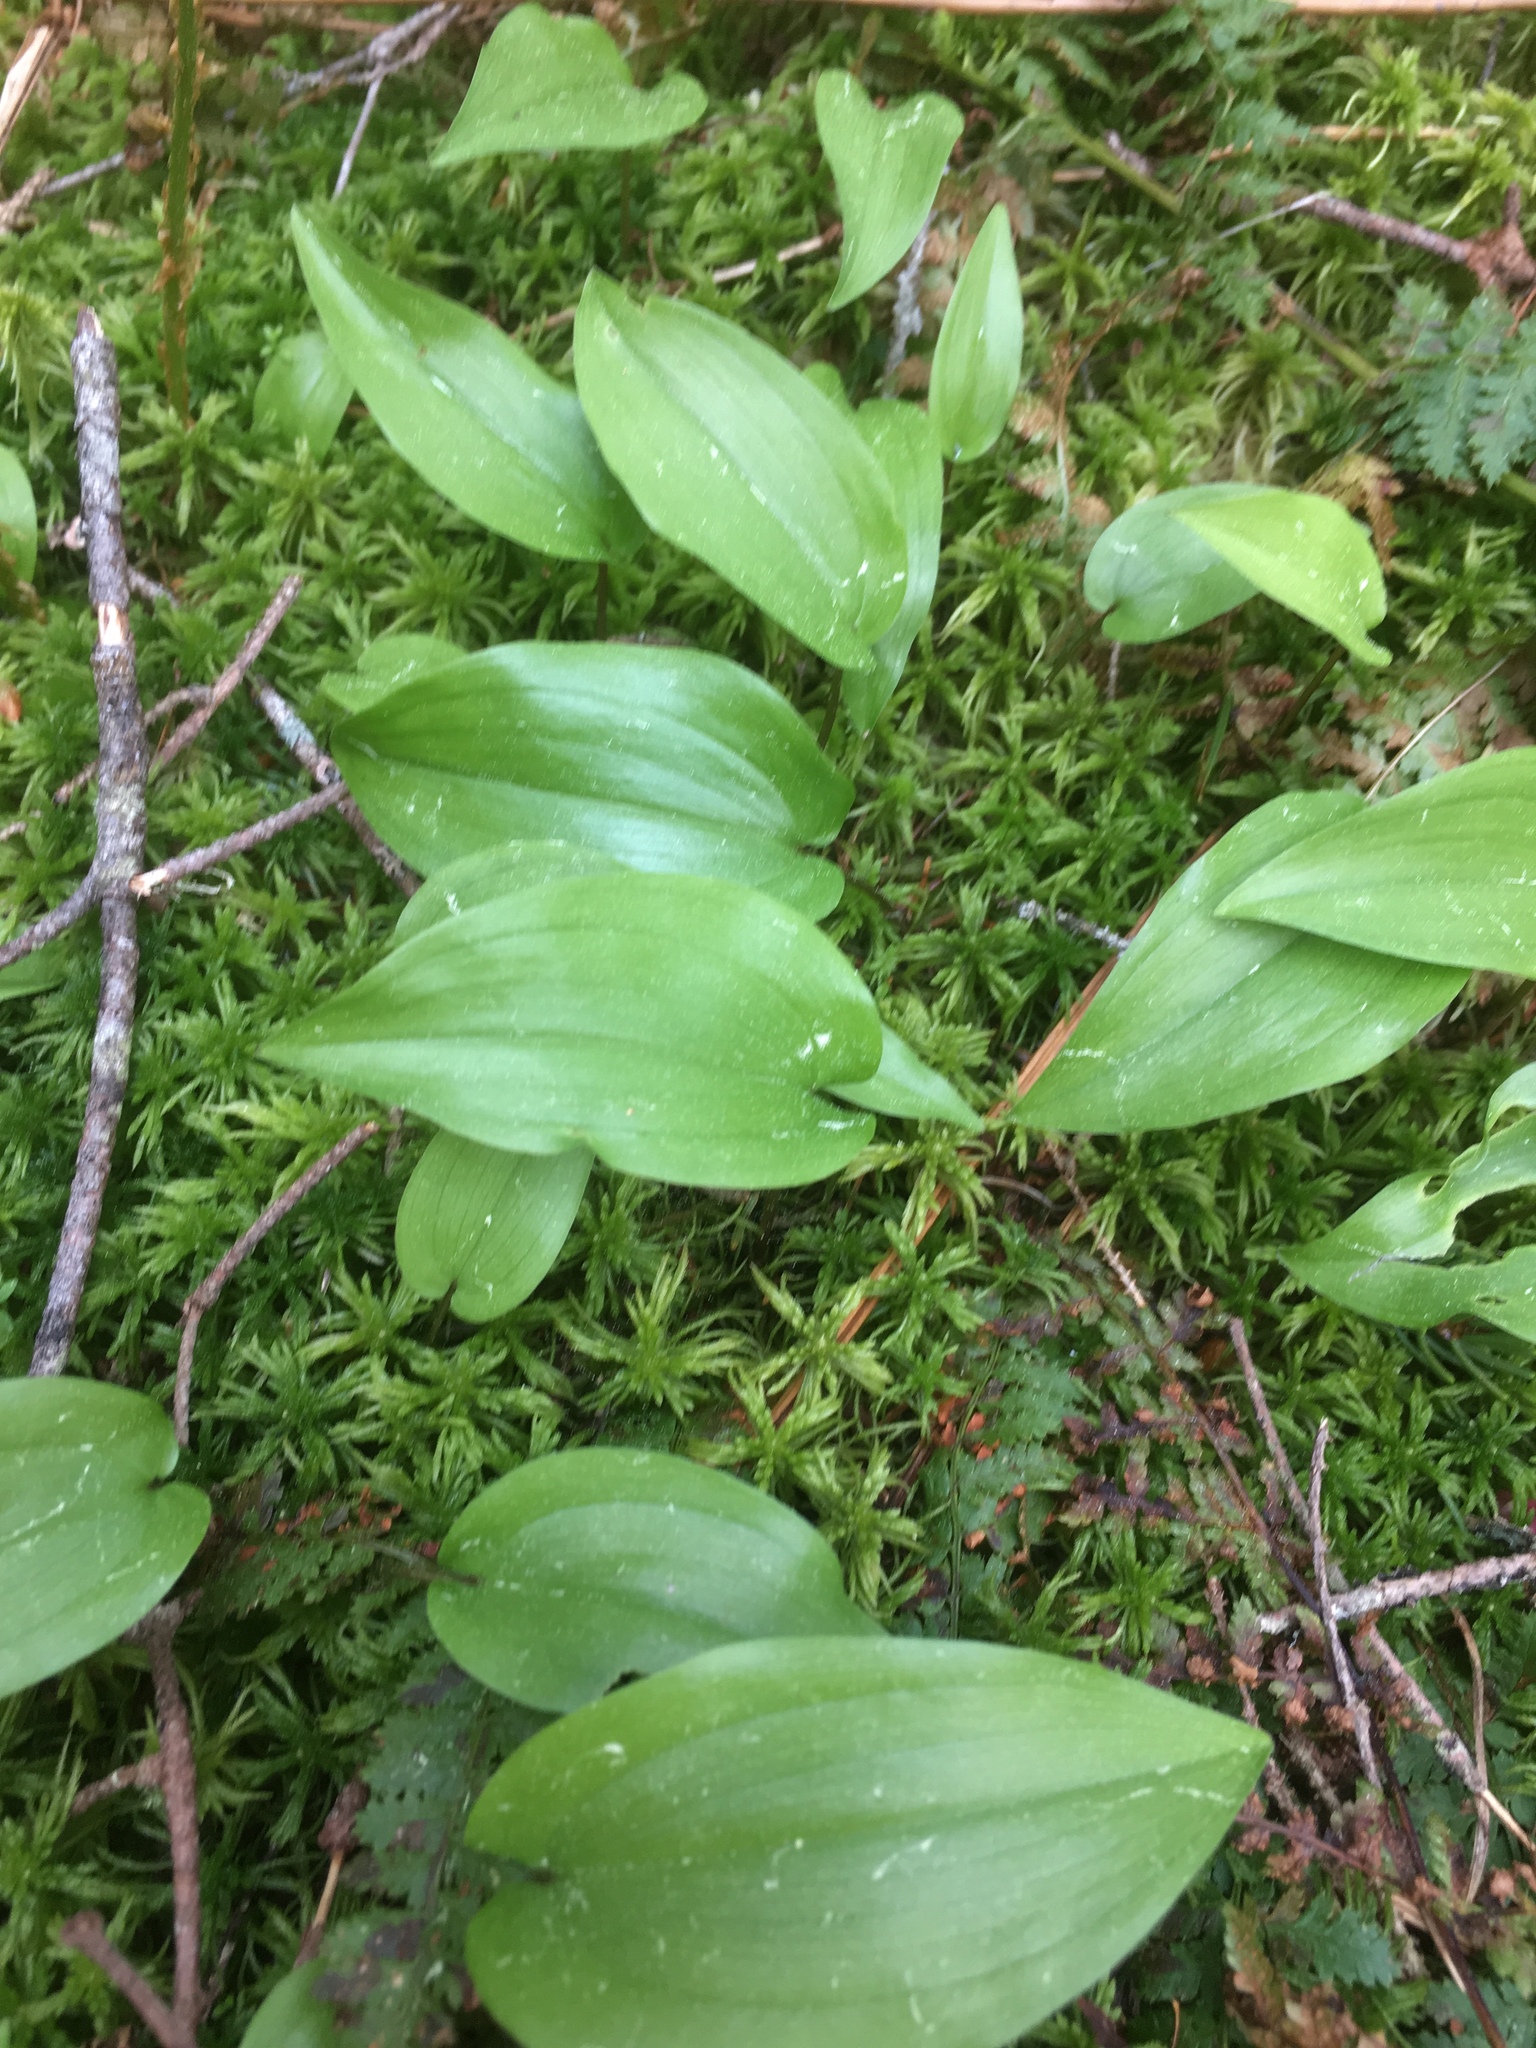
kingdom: Plantae
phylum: Tracheophyta
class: Liliopsida
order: Asparagales
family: Asparagaceae
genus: Maianthemum
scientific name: Maianthemum canadense
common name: False lily-of-the-valley
